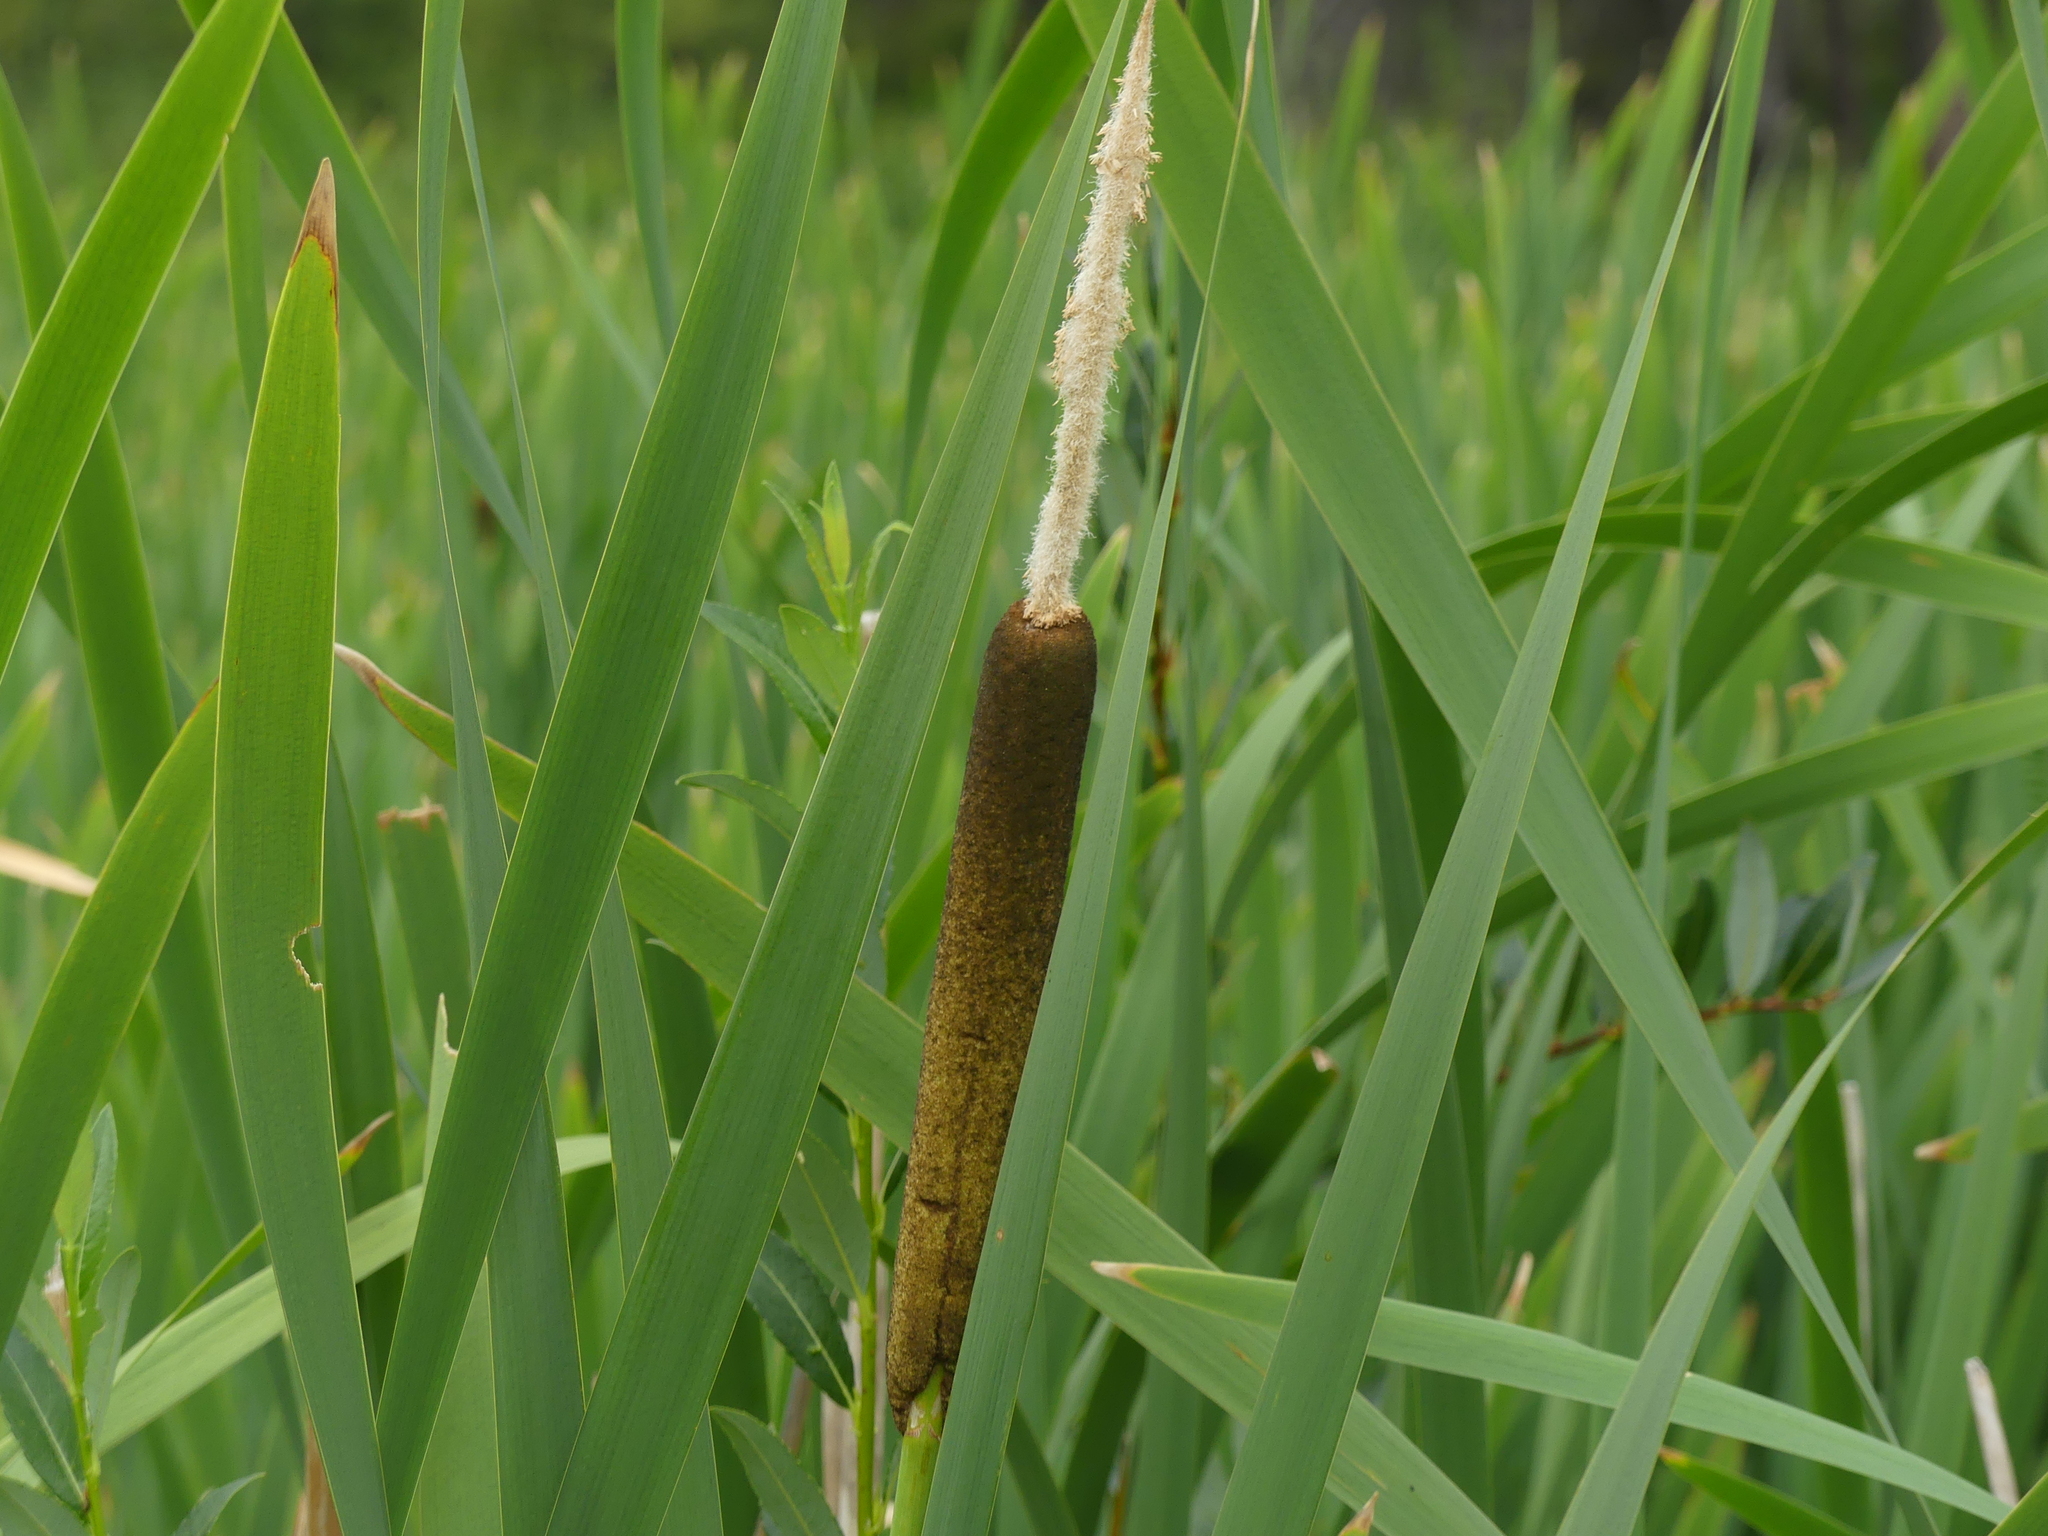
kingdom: Plantae
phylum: Tracheophyta
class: Liliopsida
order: Poales
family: Typhaceae
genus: Typha
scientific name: Typha latifolia
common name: Broadleaf cattail
